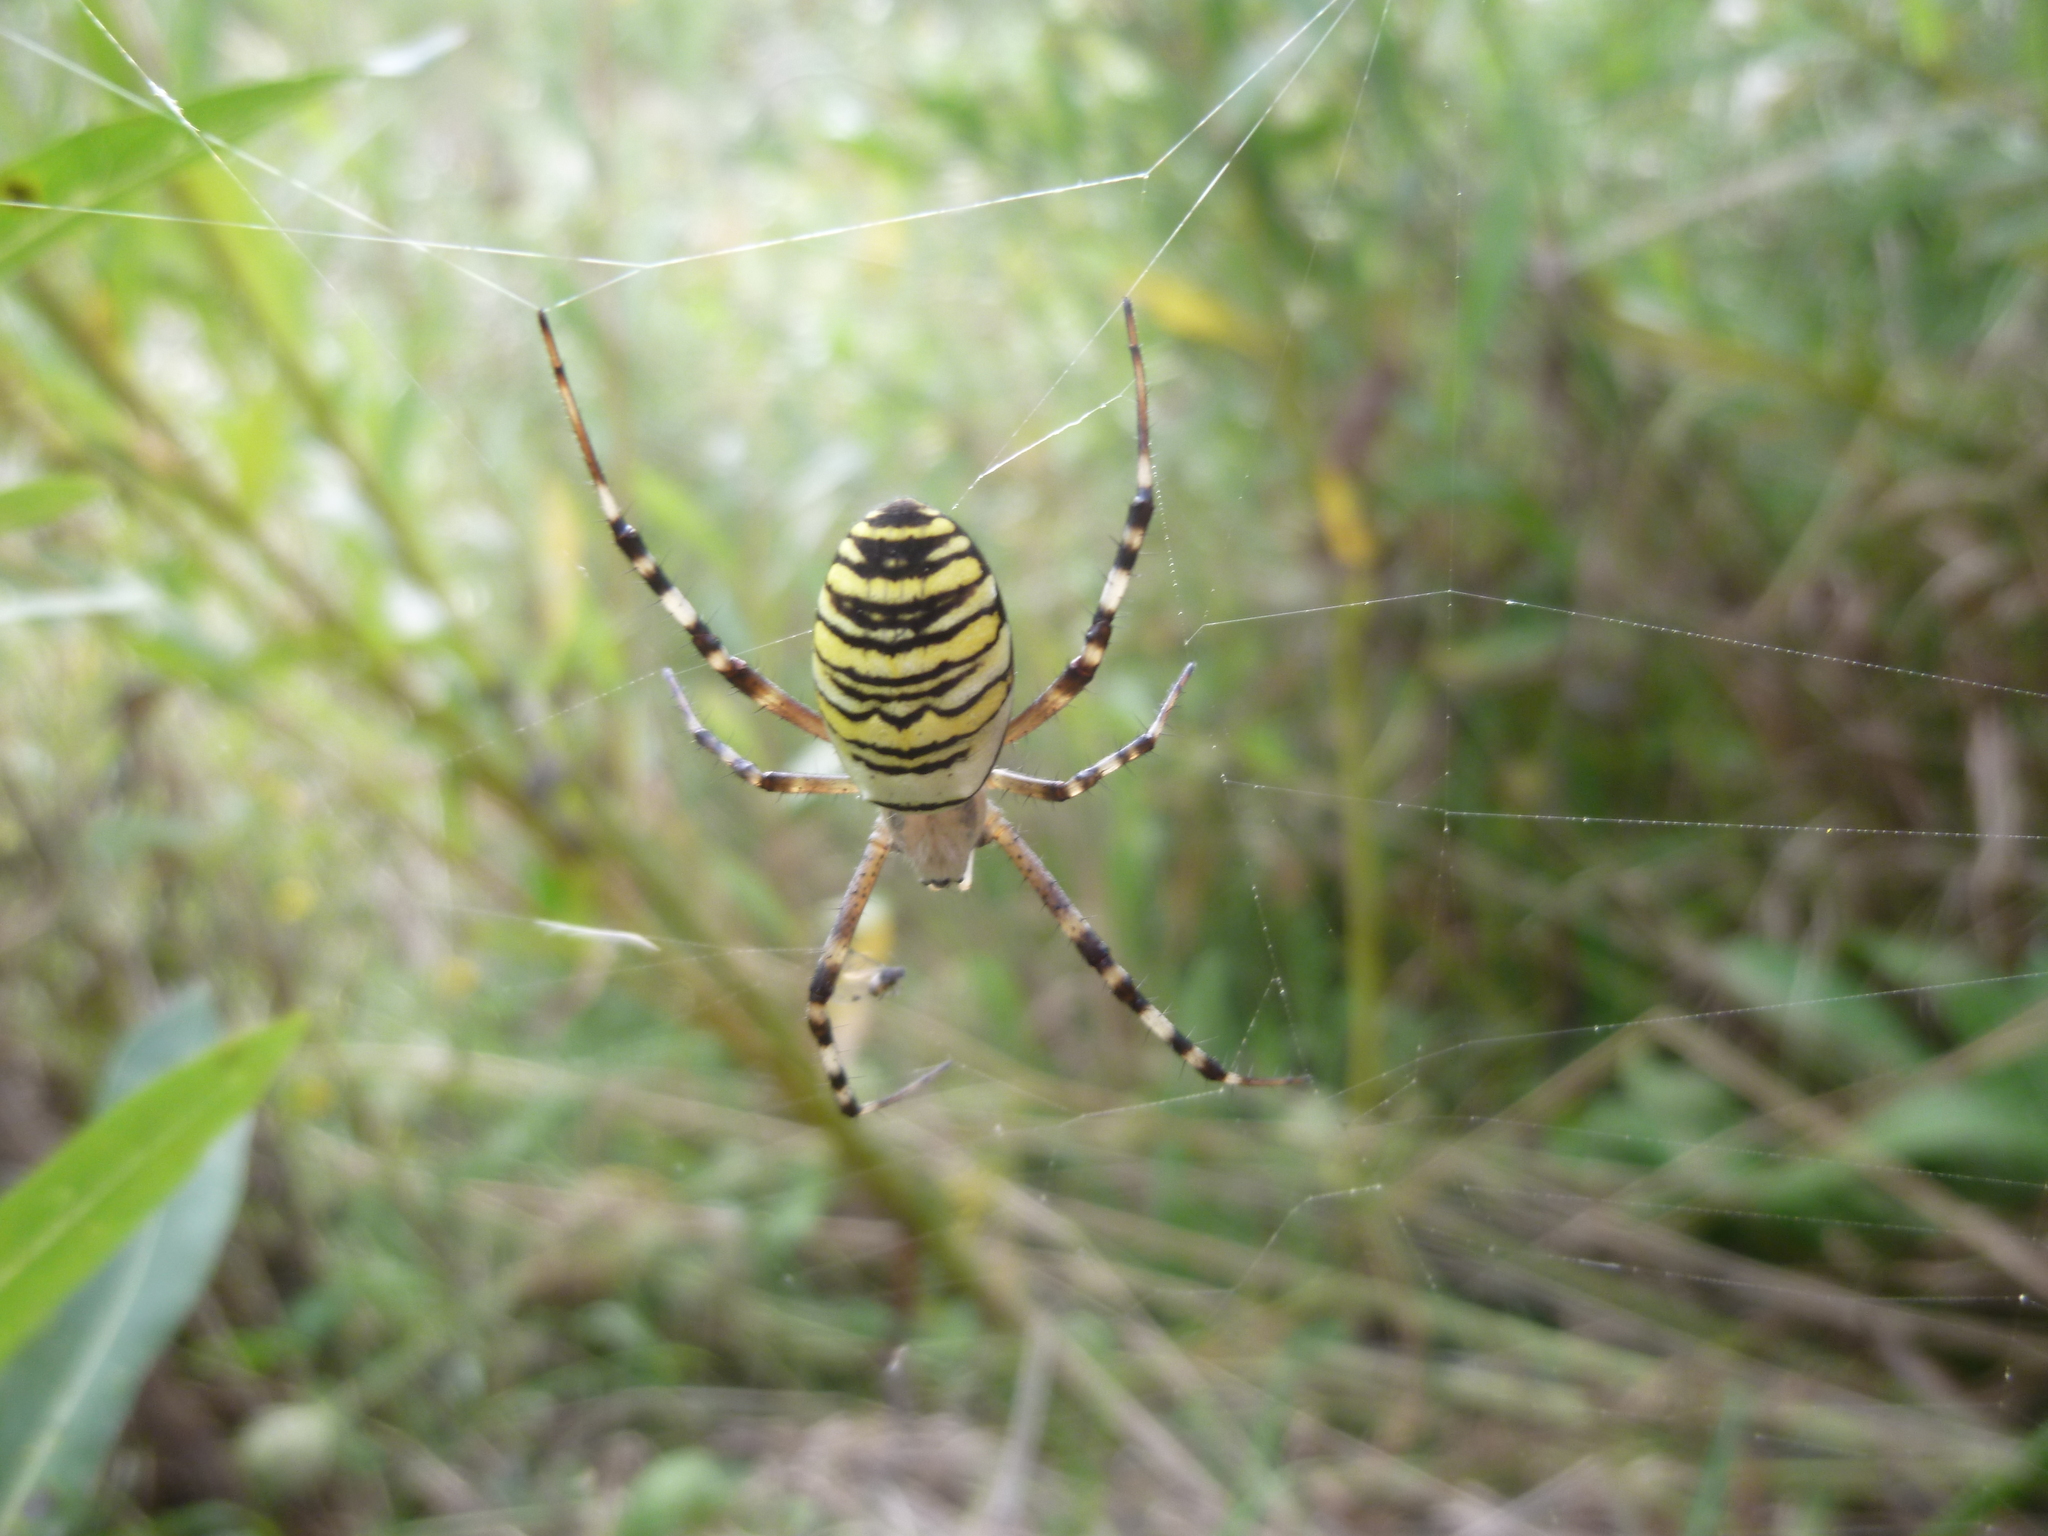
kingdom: Animalia
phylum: Arthropoda
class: Arachnida
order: Araneae
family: Araneidae
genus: Argiope
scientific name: Argiope bruennichi
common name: Wasp spider
